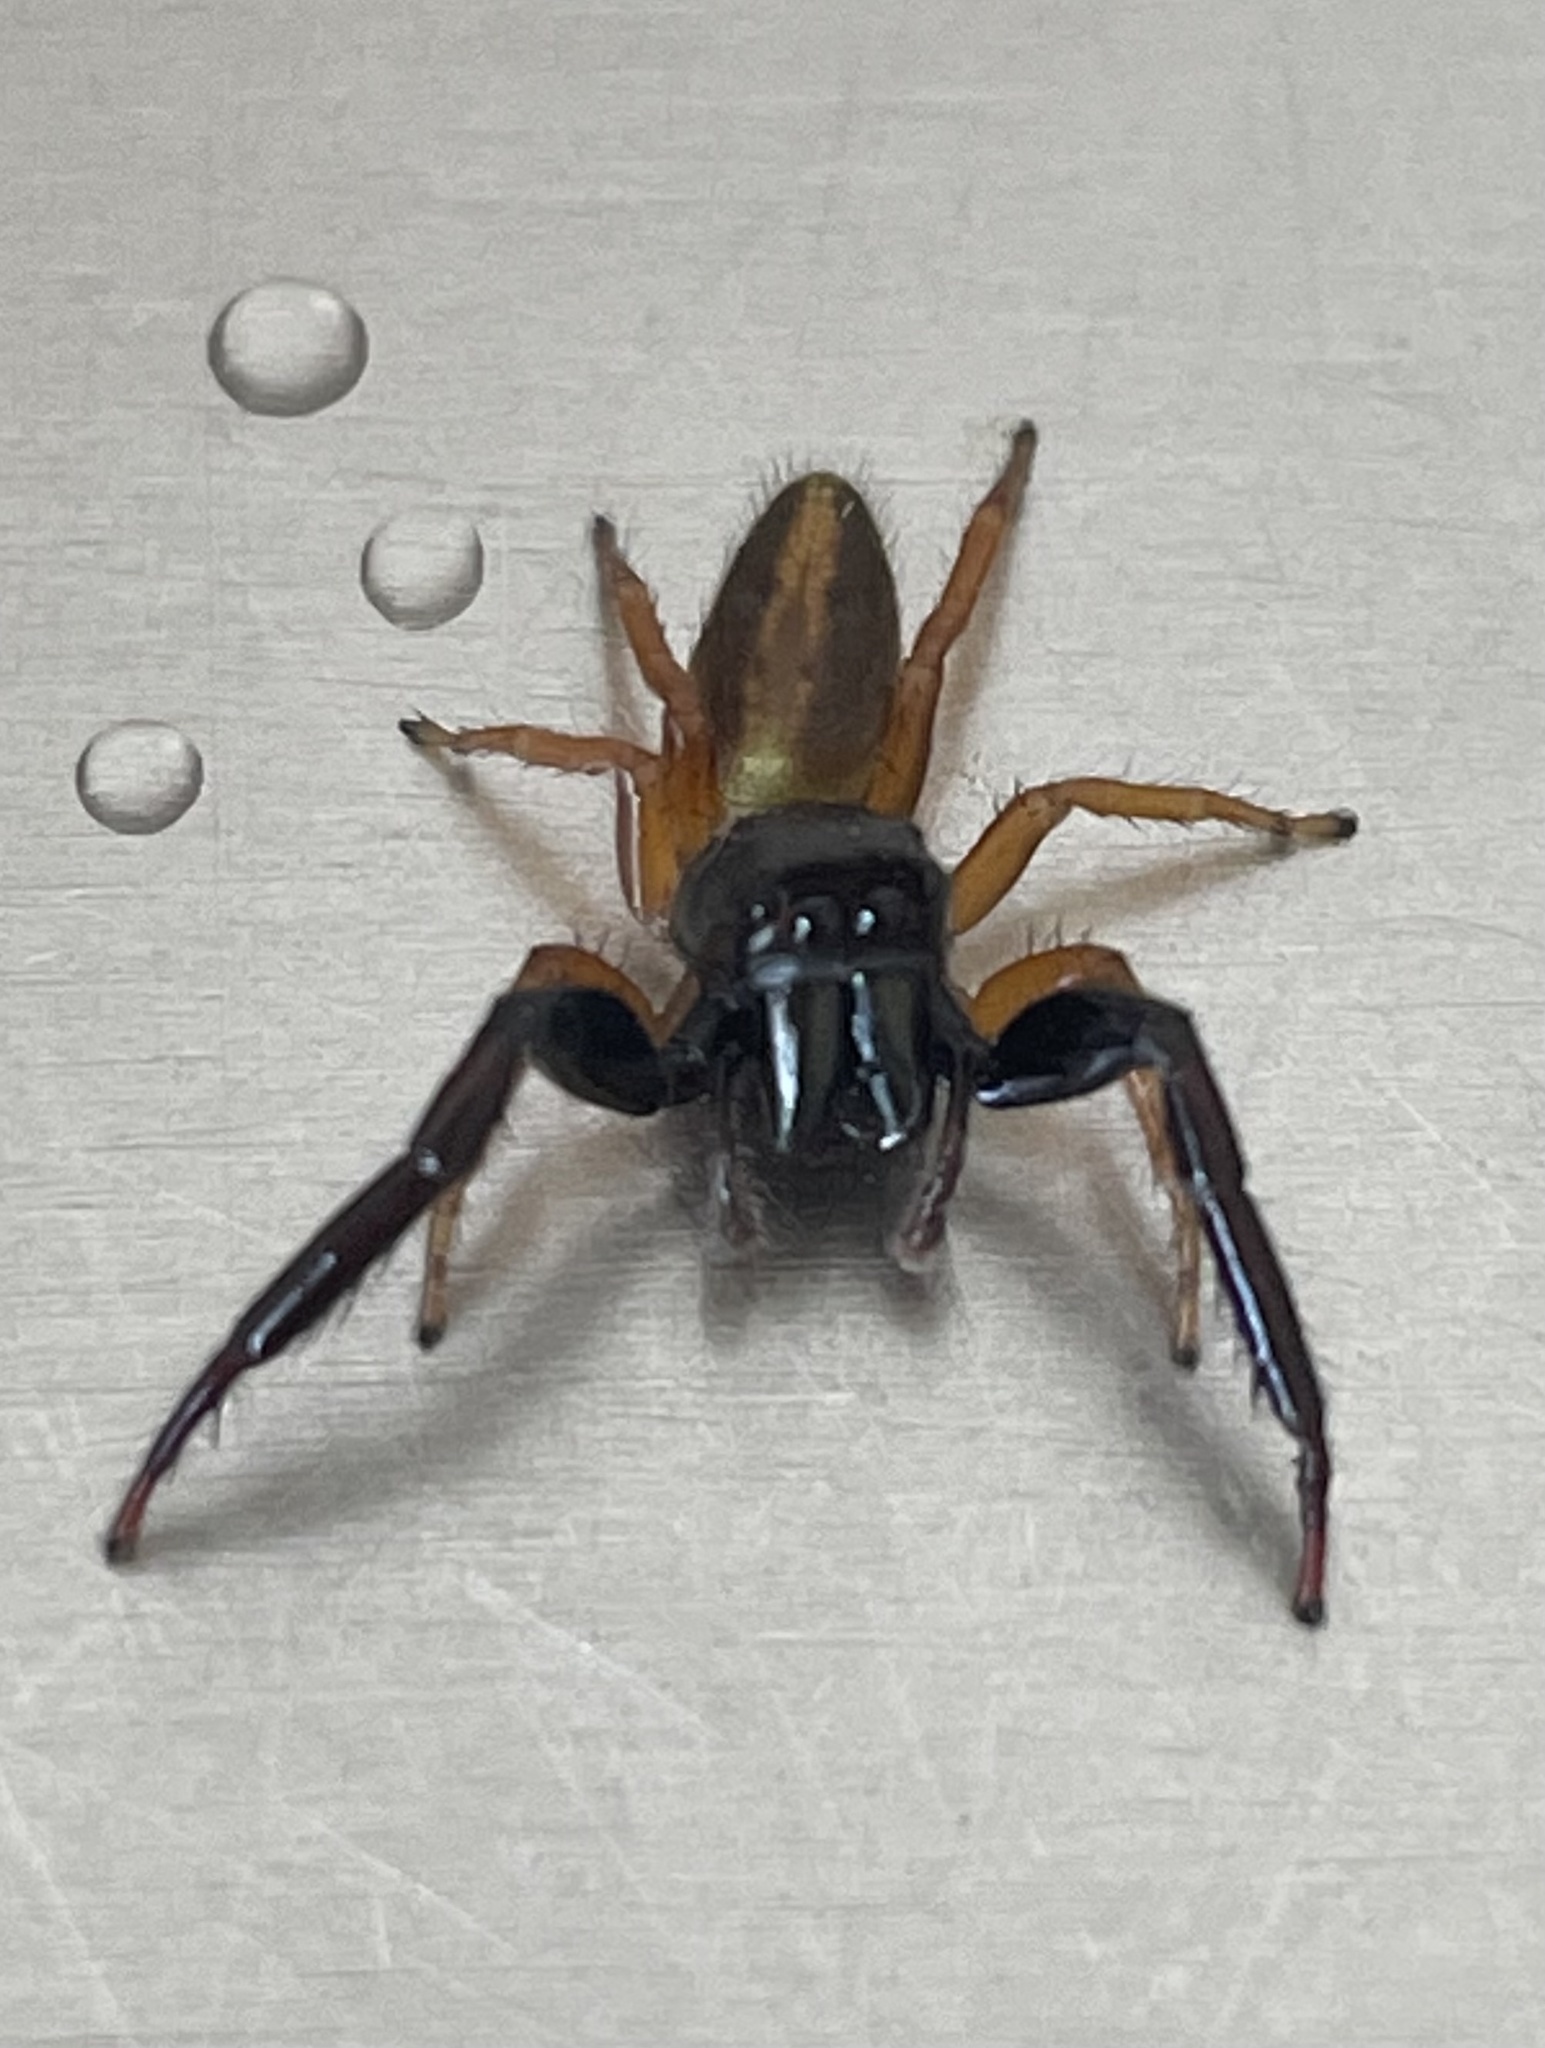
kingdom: Animalia
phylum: Arthropoda
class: Arachnida
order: Araneae
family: Salticidae
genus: Trite
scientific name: Trite planiceps
